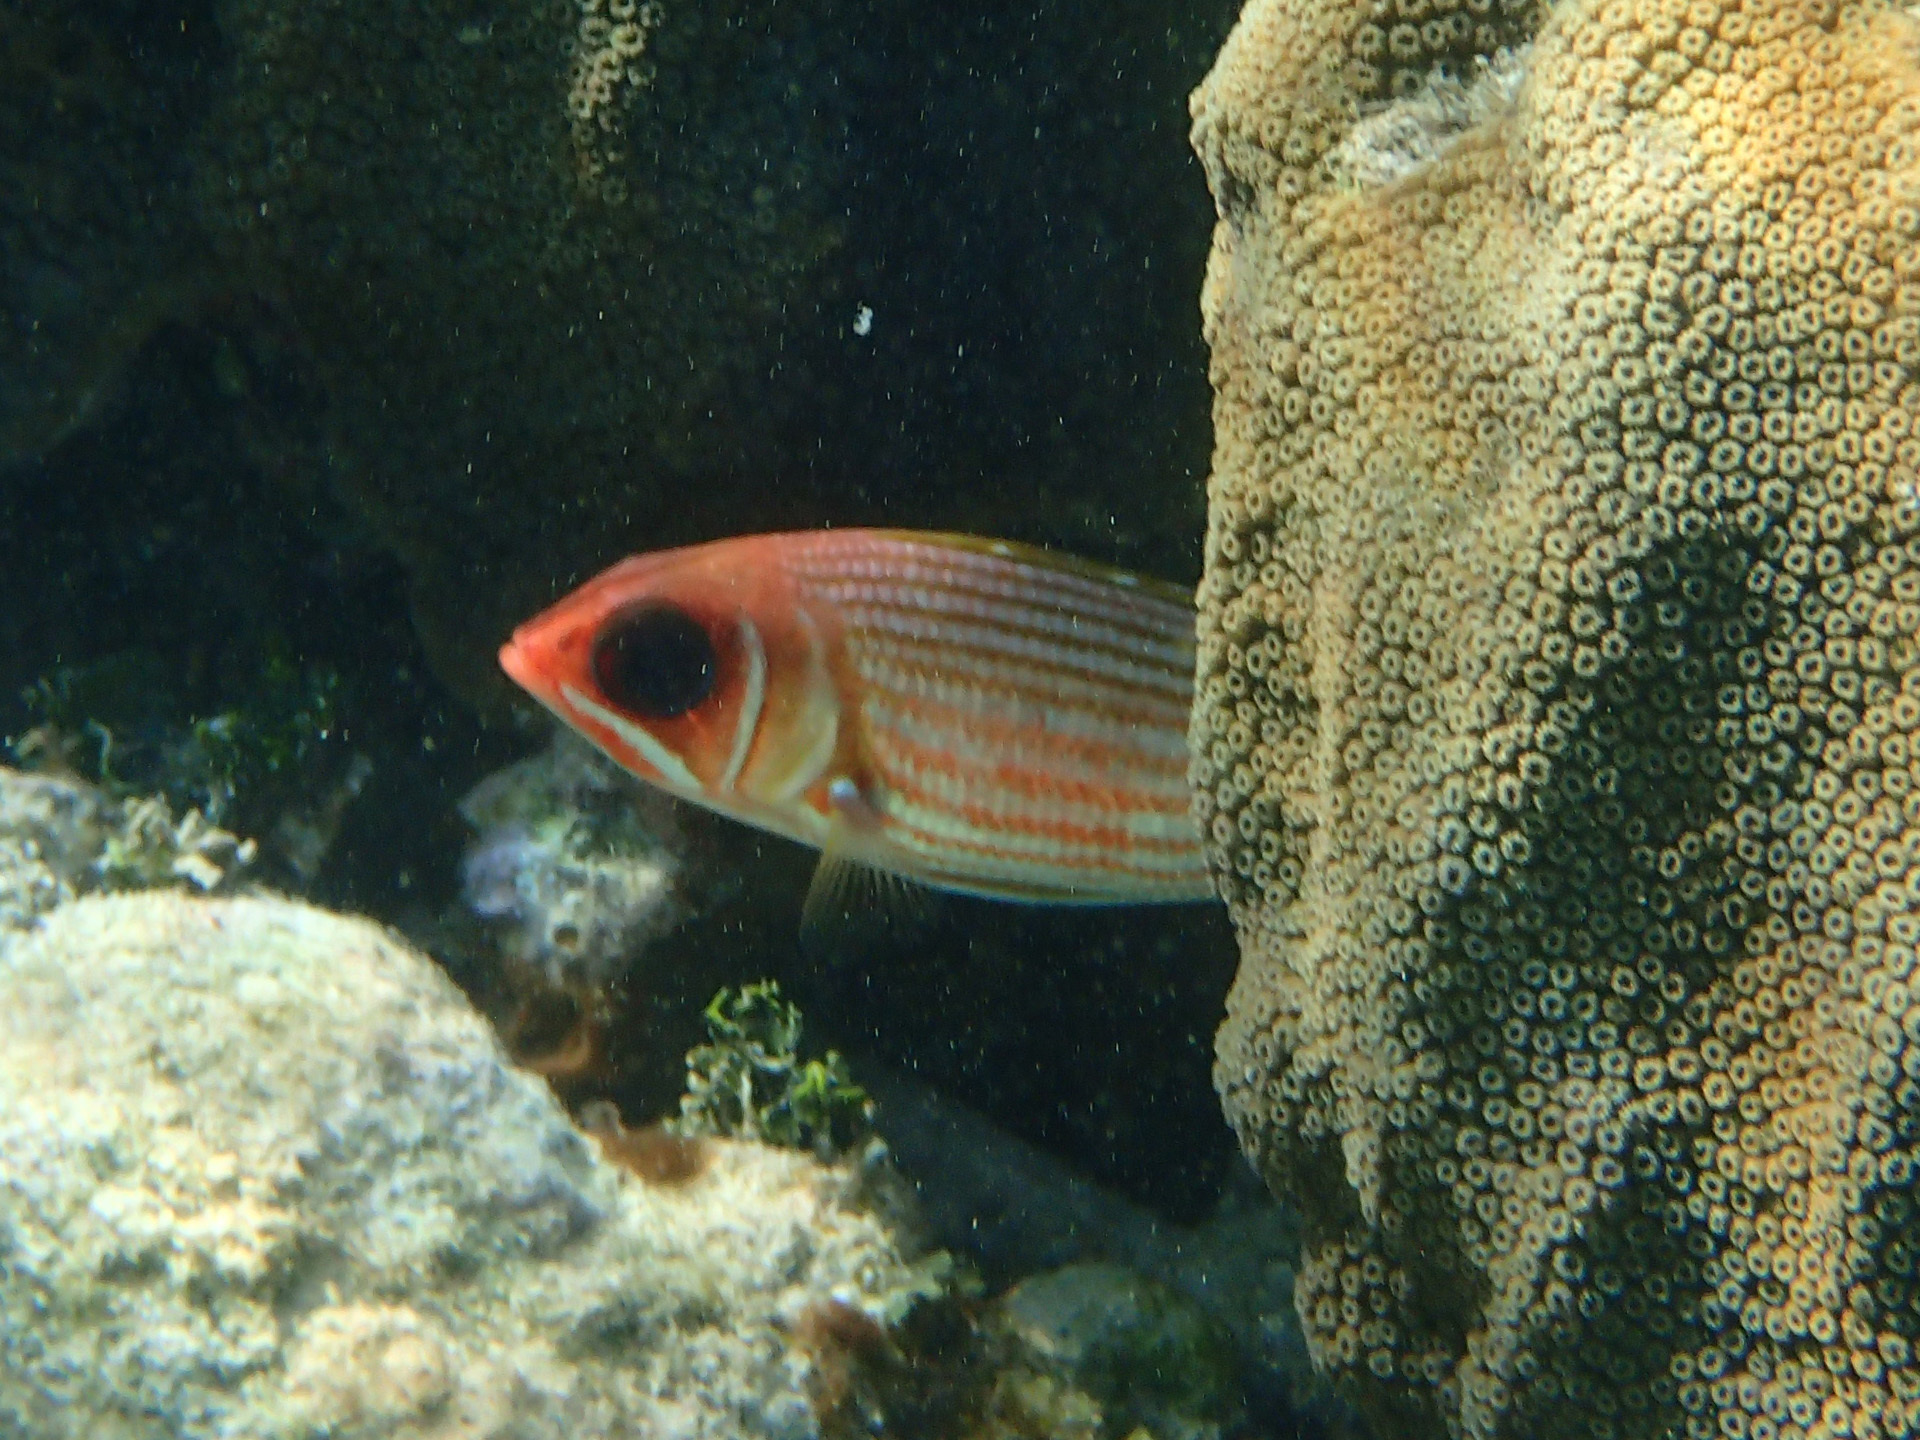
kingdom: Animalia
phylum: Chordata
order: Beryciformes
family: Holocentridae
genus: Neoniphon
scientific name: Neoniphon marianus
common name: Longjaw squirrelfish
